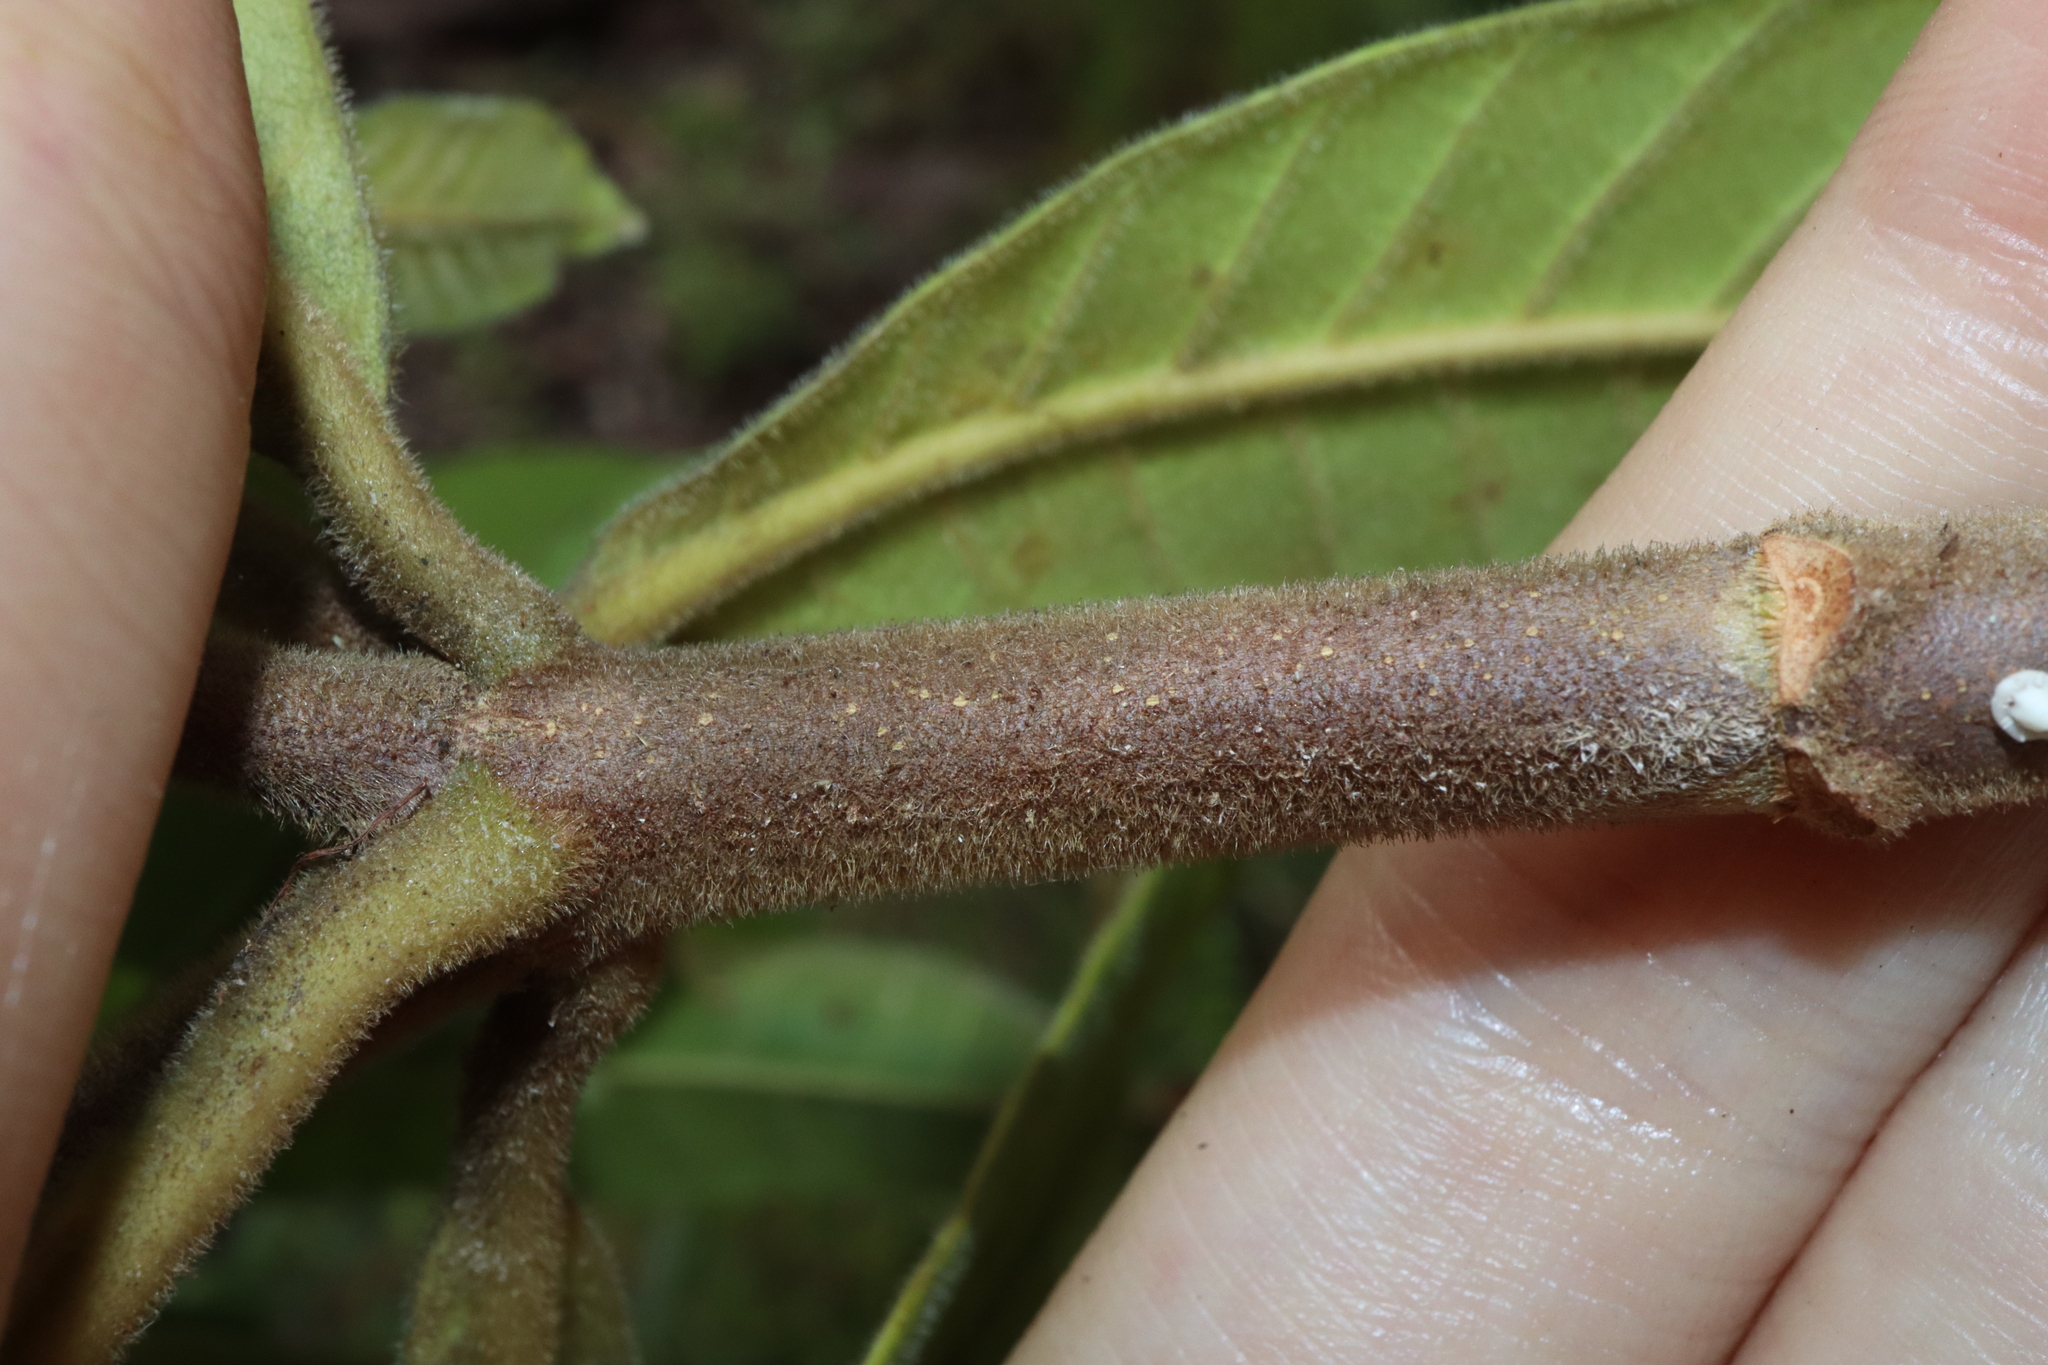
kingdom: Plantae
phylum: Tracheophyta
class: Magnoliopsida
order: Gentianales
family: Apocynaceae
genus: Alstonia
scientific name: Alstonia muelleriana
